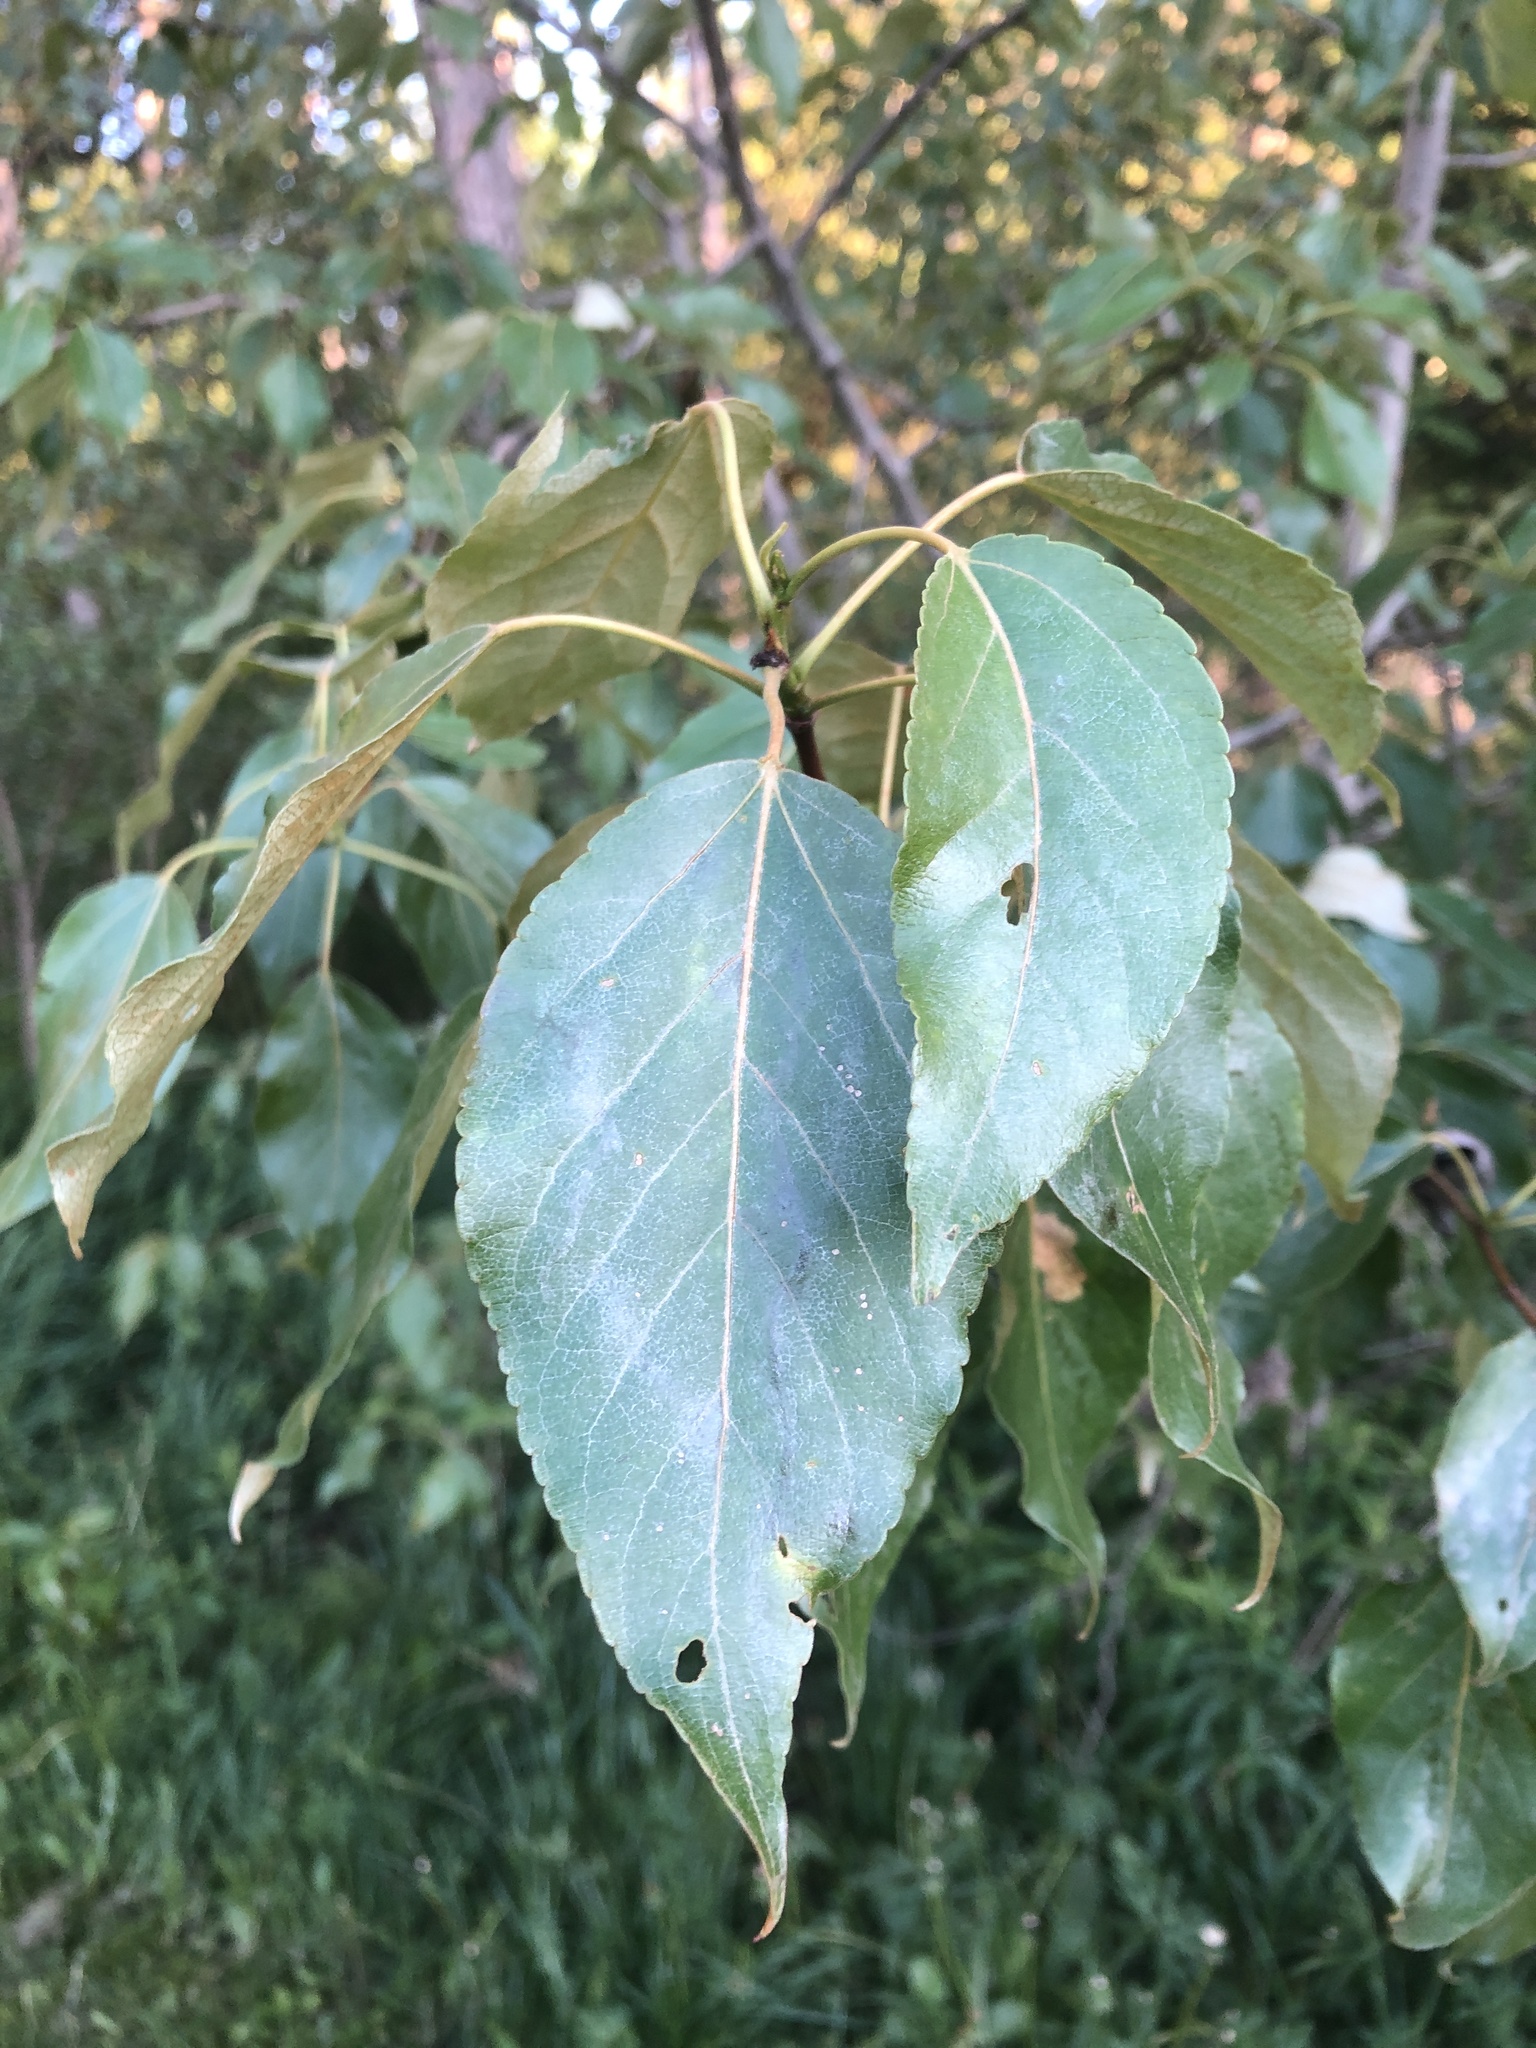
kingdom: Plantae
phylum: Tracheophyta
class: Magnoliopsida
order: Malpighiales
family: Salicaceae
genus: Populus
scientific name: Populus balsamifera
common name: Balsam poplar
